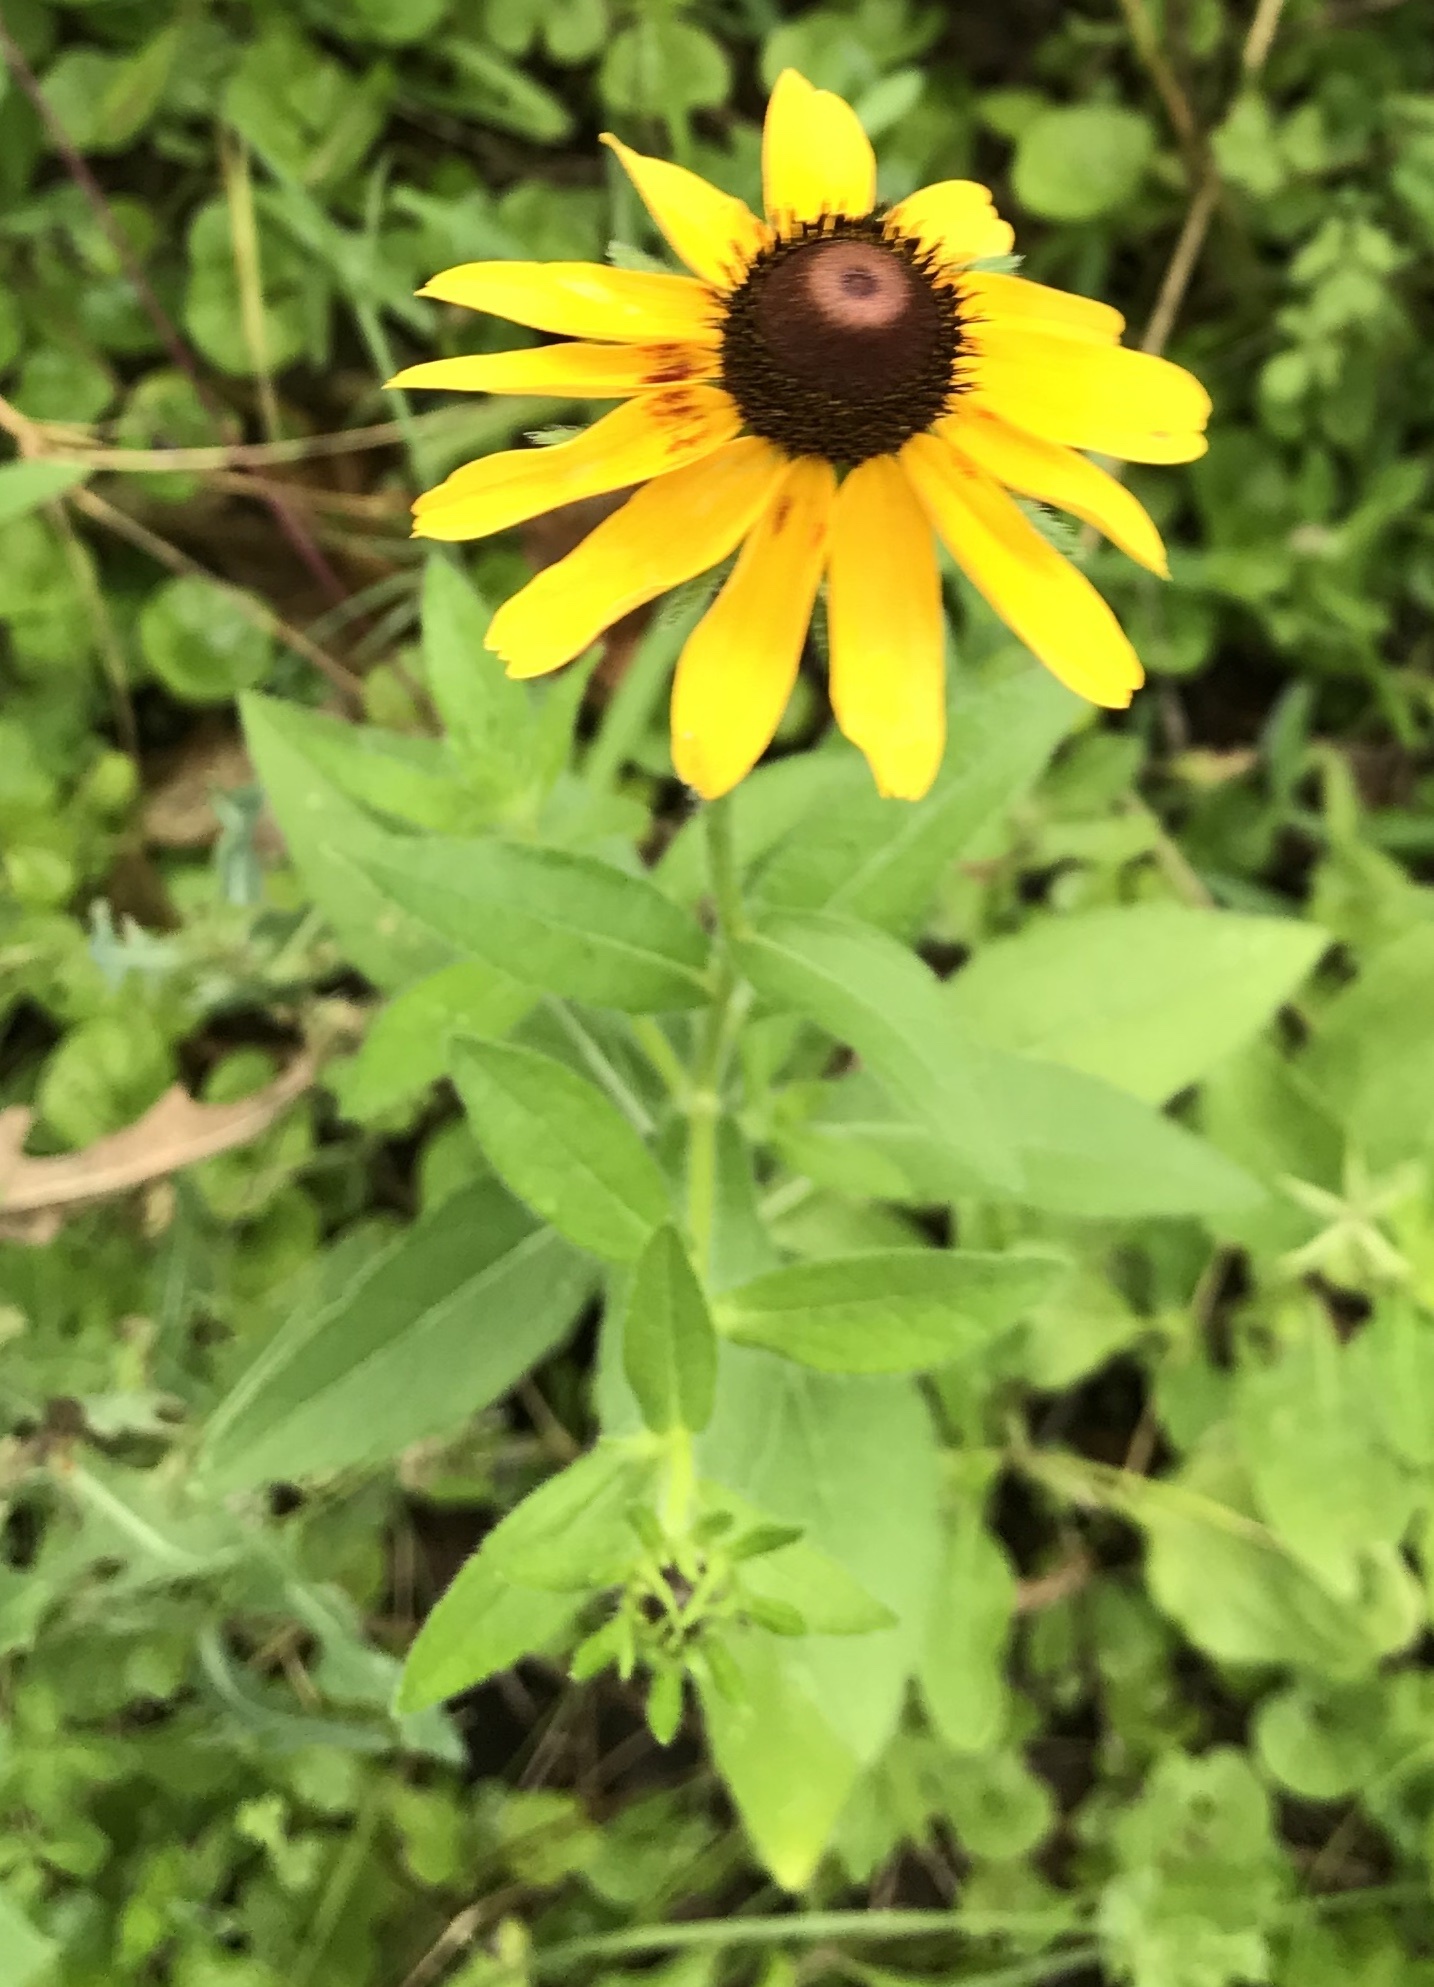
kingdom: Plantae
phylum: Tracheophyta
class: Magnoliopsida
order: Asterales
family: Asteraceae
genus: Rudbeckia
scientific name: Rudbeckia hirta
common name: Black-eyed-susan
